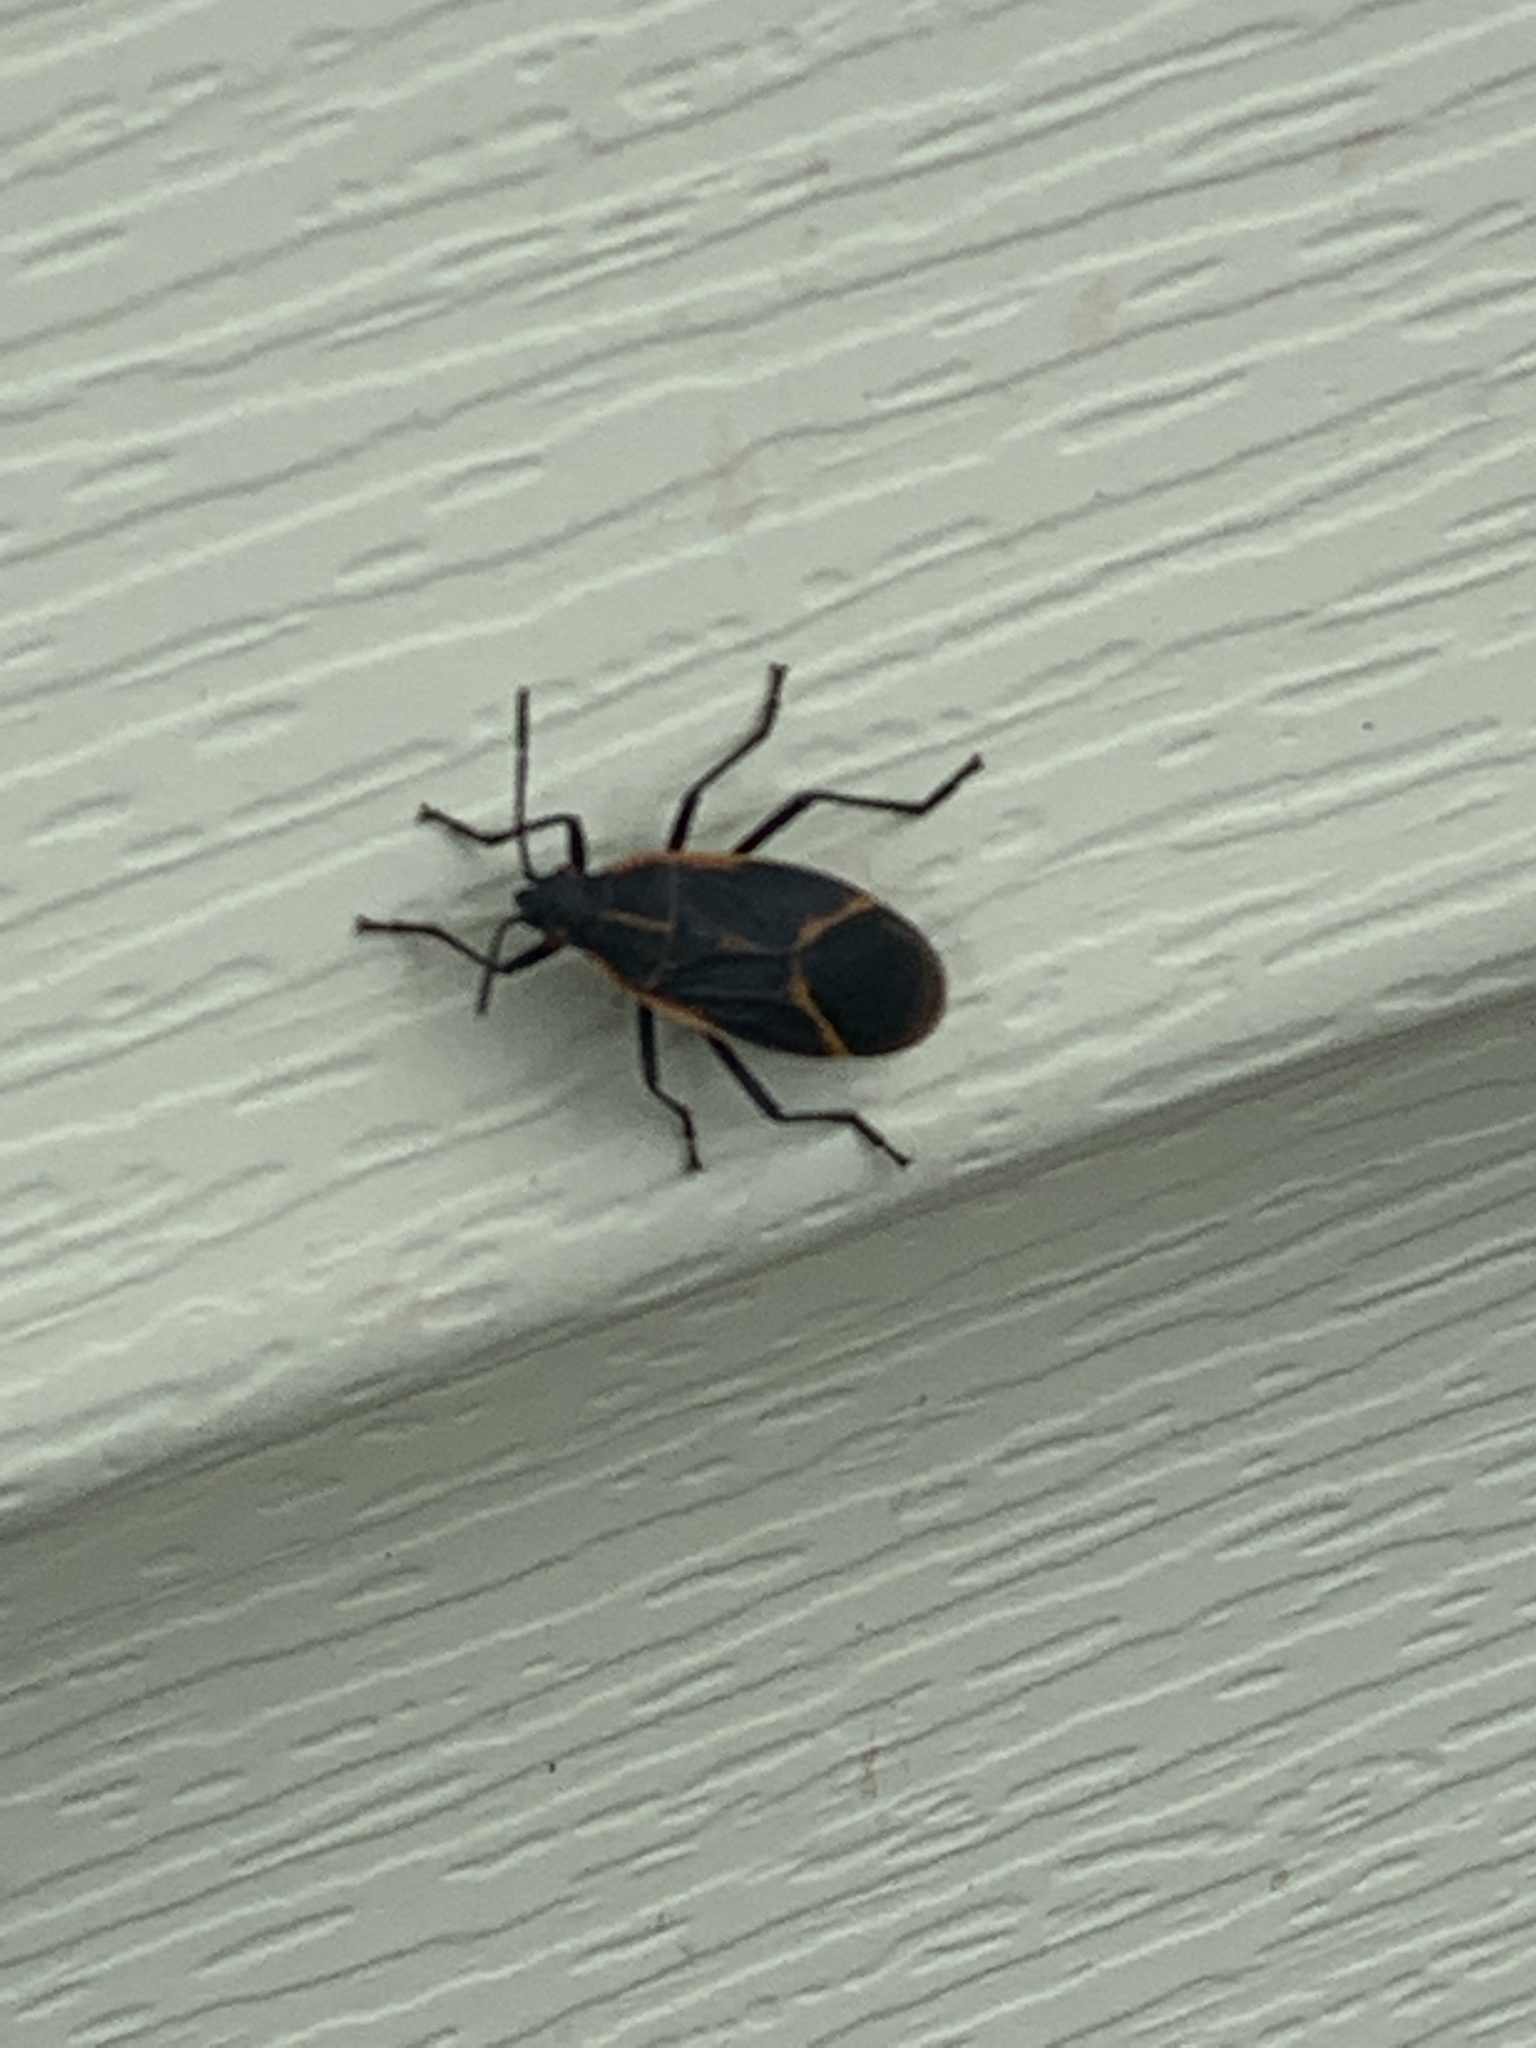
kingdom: Animalia
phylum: Arthropoda
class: Insecta
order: Hemiptera
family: Rhopalidae
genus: Boisea
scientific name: Boisea trivittata
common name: Boxelder bug
